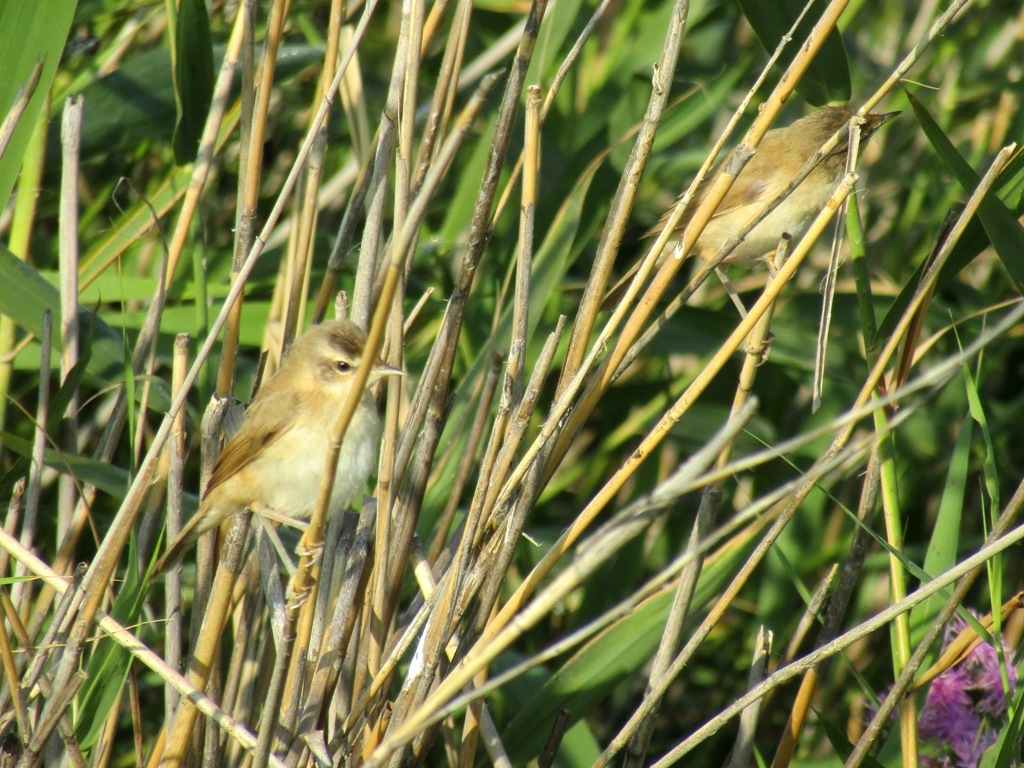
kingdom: Animalia
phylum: Chordata
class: Aves
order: Passeriformes
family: Acrocephalidae
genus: Acrocephalus
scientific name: Acrocephalus agricola
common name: Paddyfield warbler
